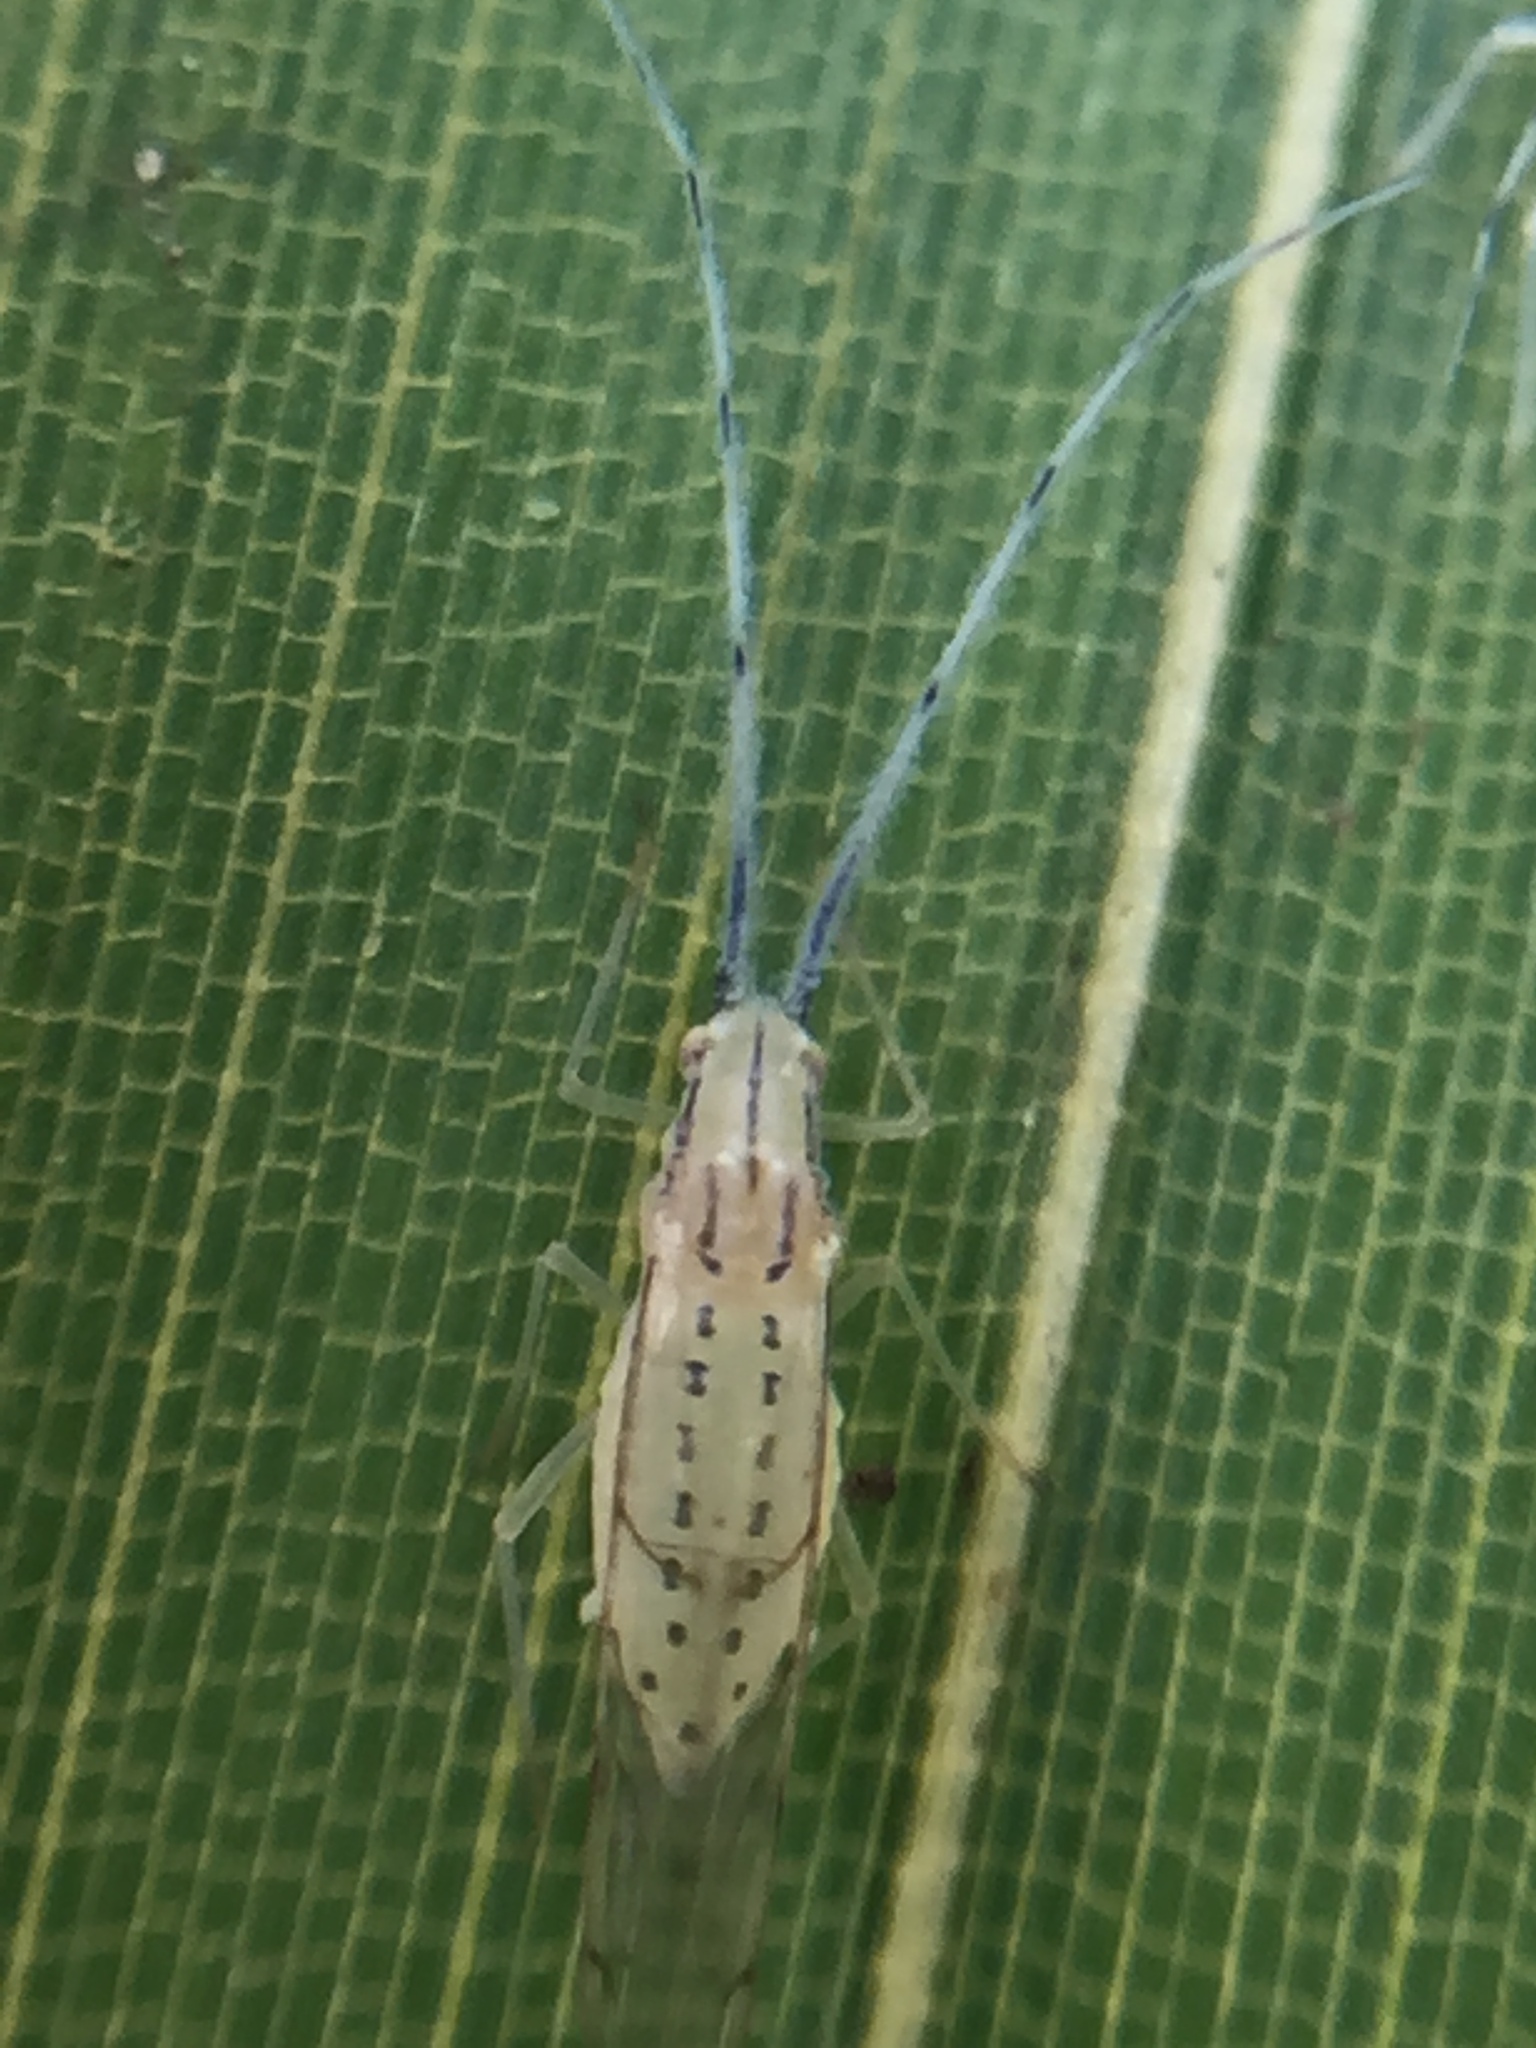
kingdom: Animalia
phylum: Arthropoda
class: Insecta
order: Hemiptera
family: Aphididae
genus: Takecallis
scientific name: Takecallis arundinariae
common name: Black-tailed bamboo aphid
